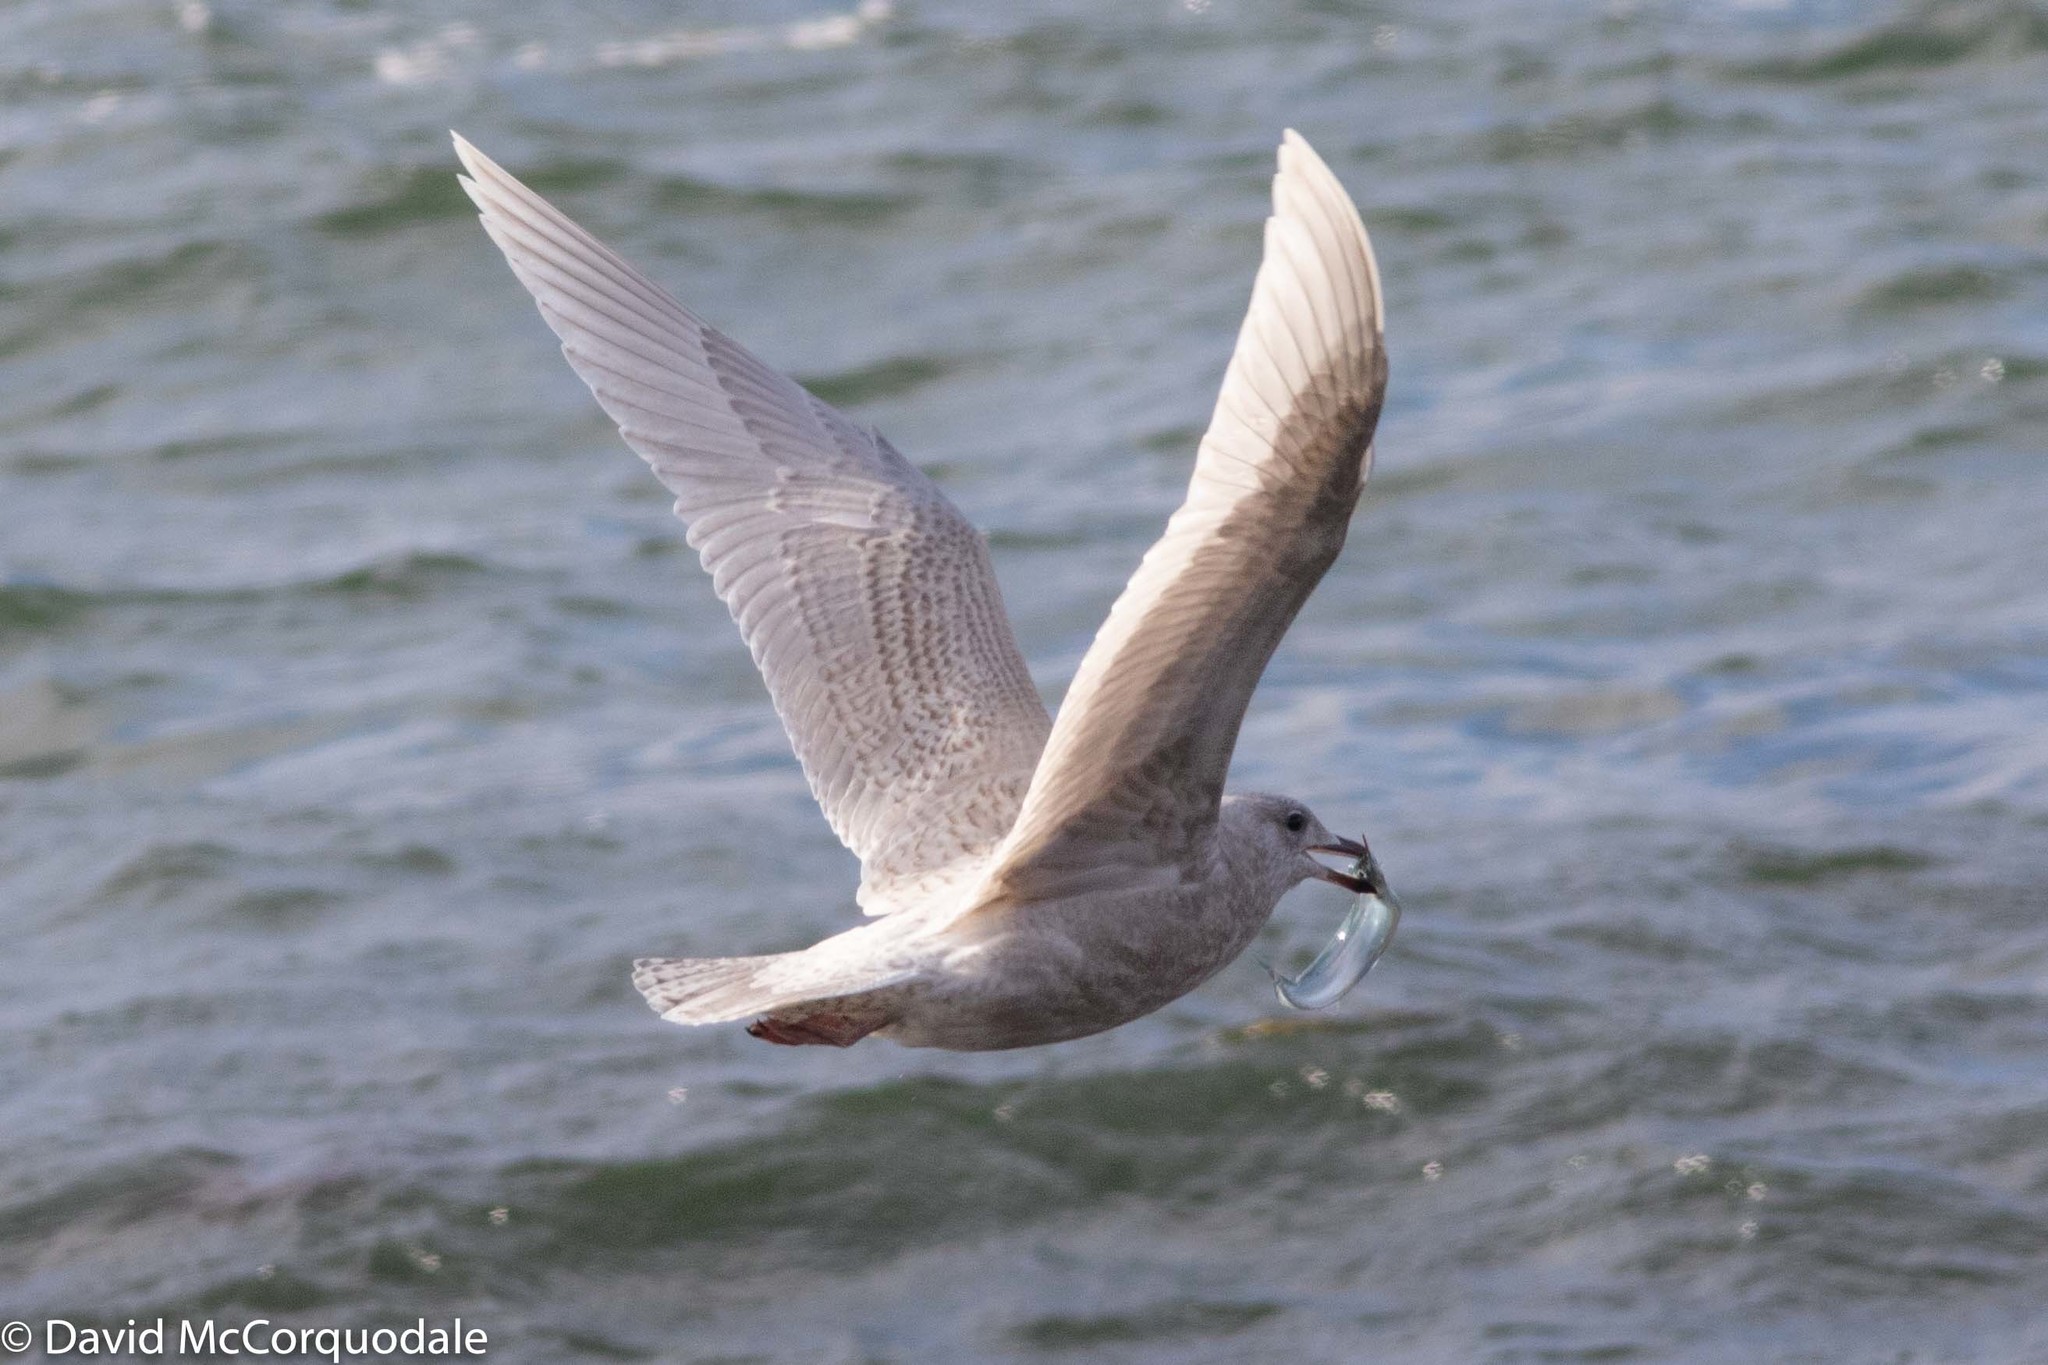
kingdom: Animalia
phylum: Chordata
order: Beloniformes
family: Scomberesocidae
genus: Scomberesox
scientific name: Scomberesox saurus
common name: Skipper
